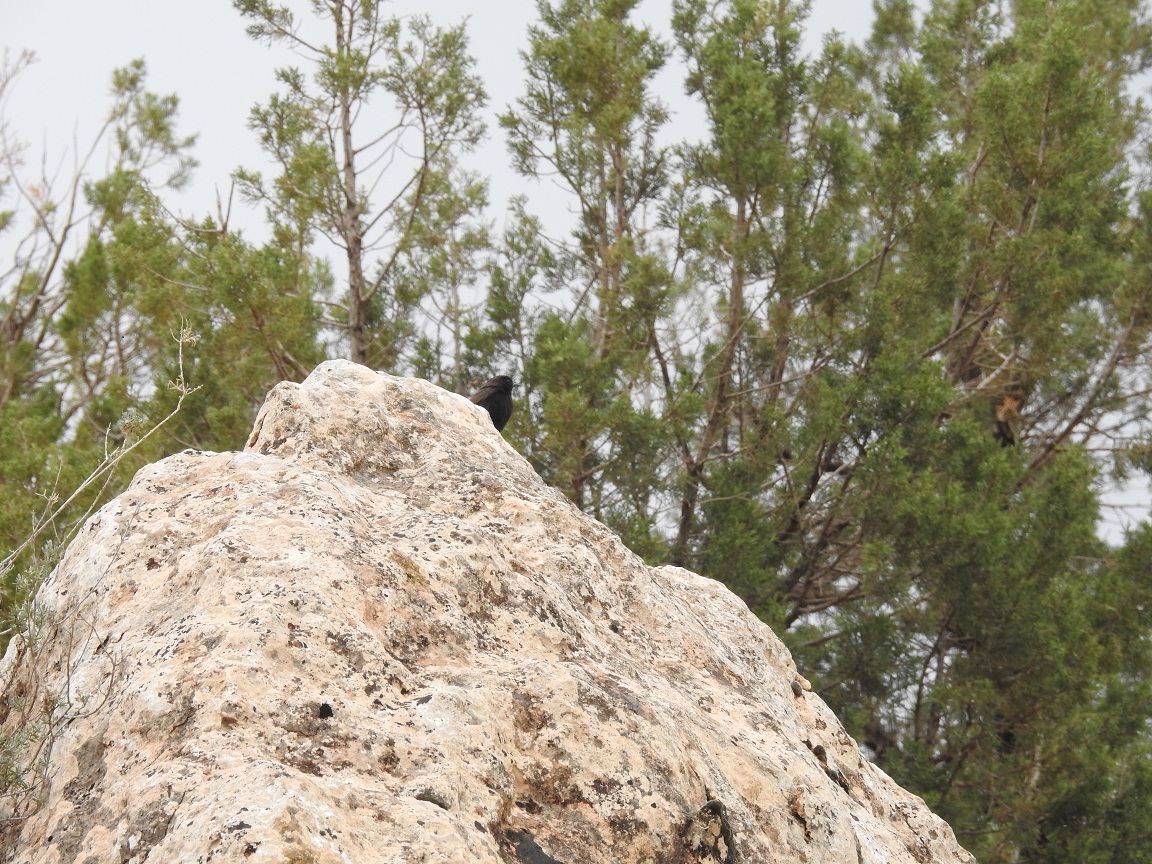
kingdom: Animalia
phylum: Chordata
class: Aves
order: Passeriformes
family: Muscicapidae
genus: Oenanthe
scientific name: Oenanthe leucura
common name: Black wheatear
